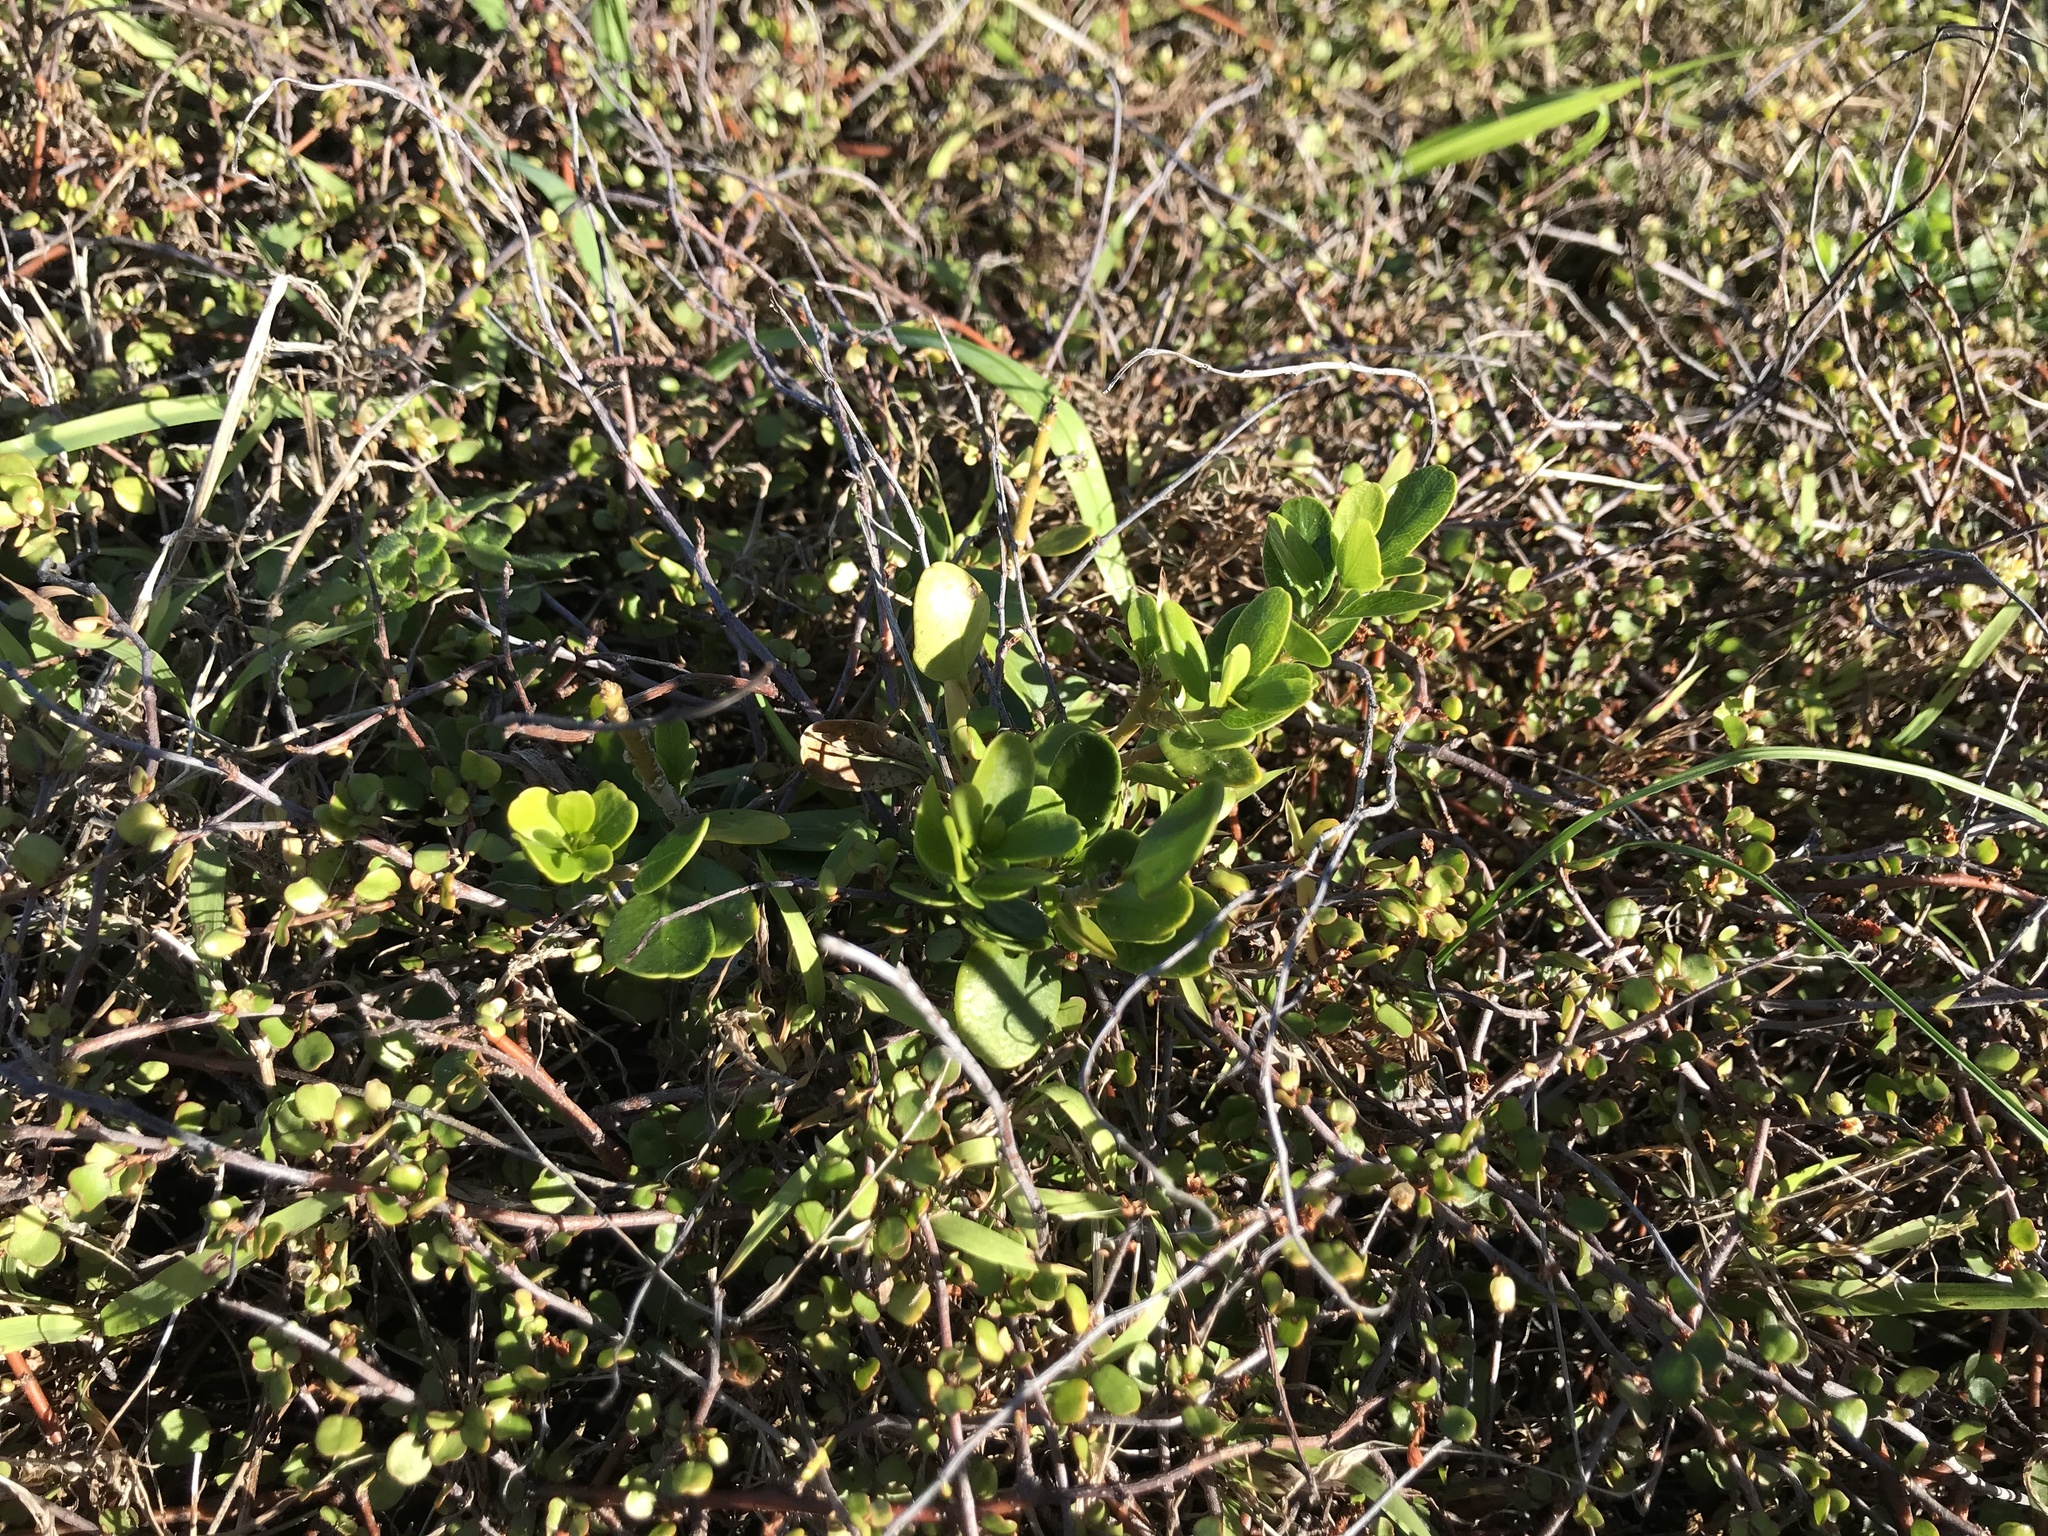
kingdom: Plantae
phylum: Tracheophyta
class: Magnoliopsida
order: Malpighiales
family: Violaceae
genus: Melicytus
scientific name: Melicytus orarius
